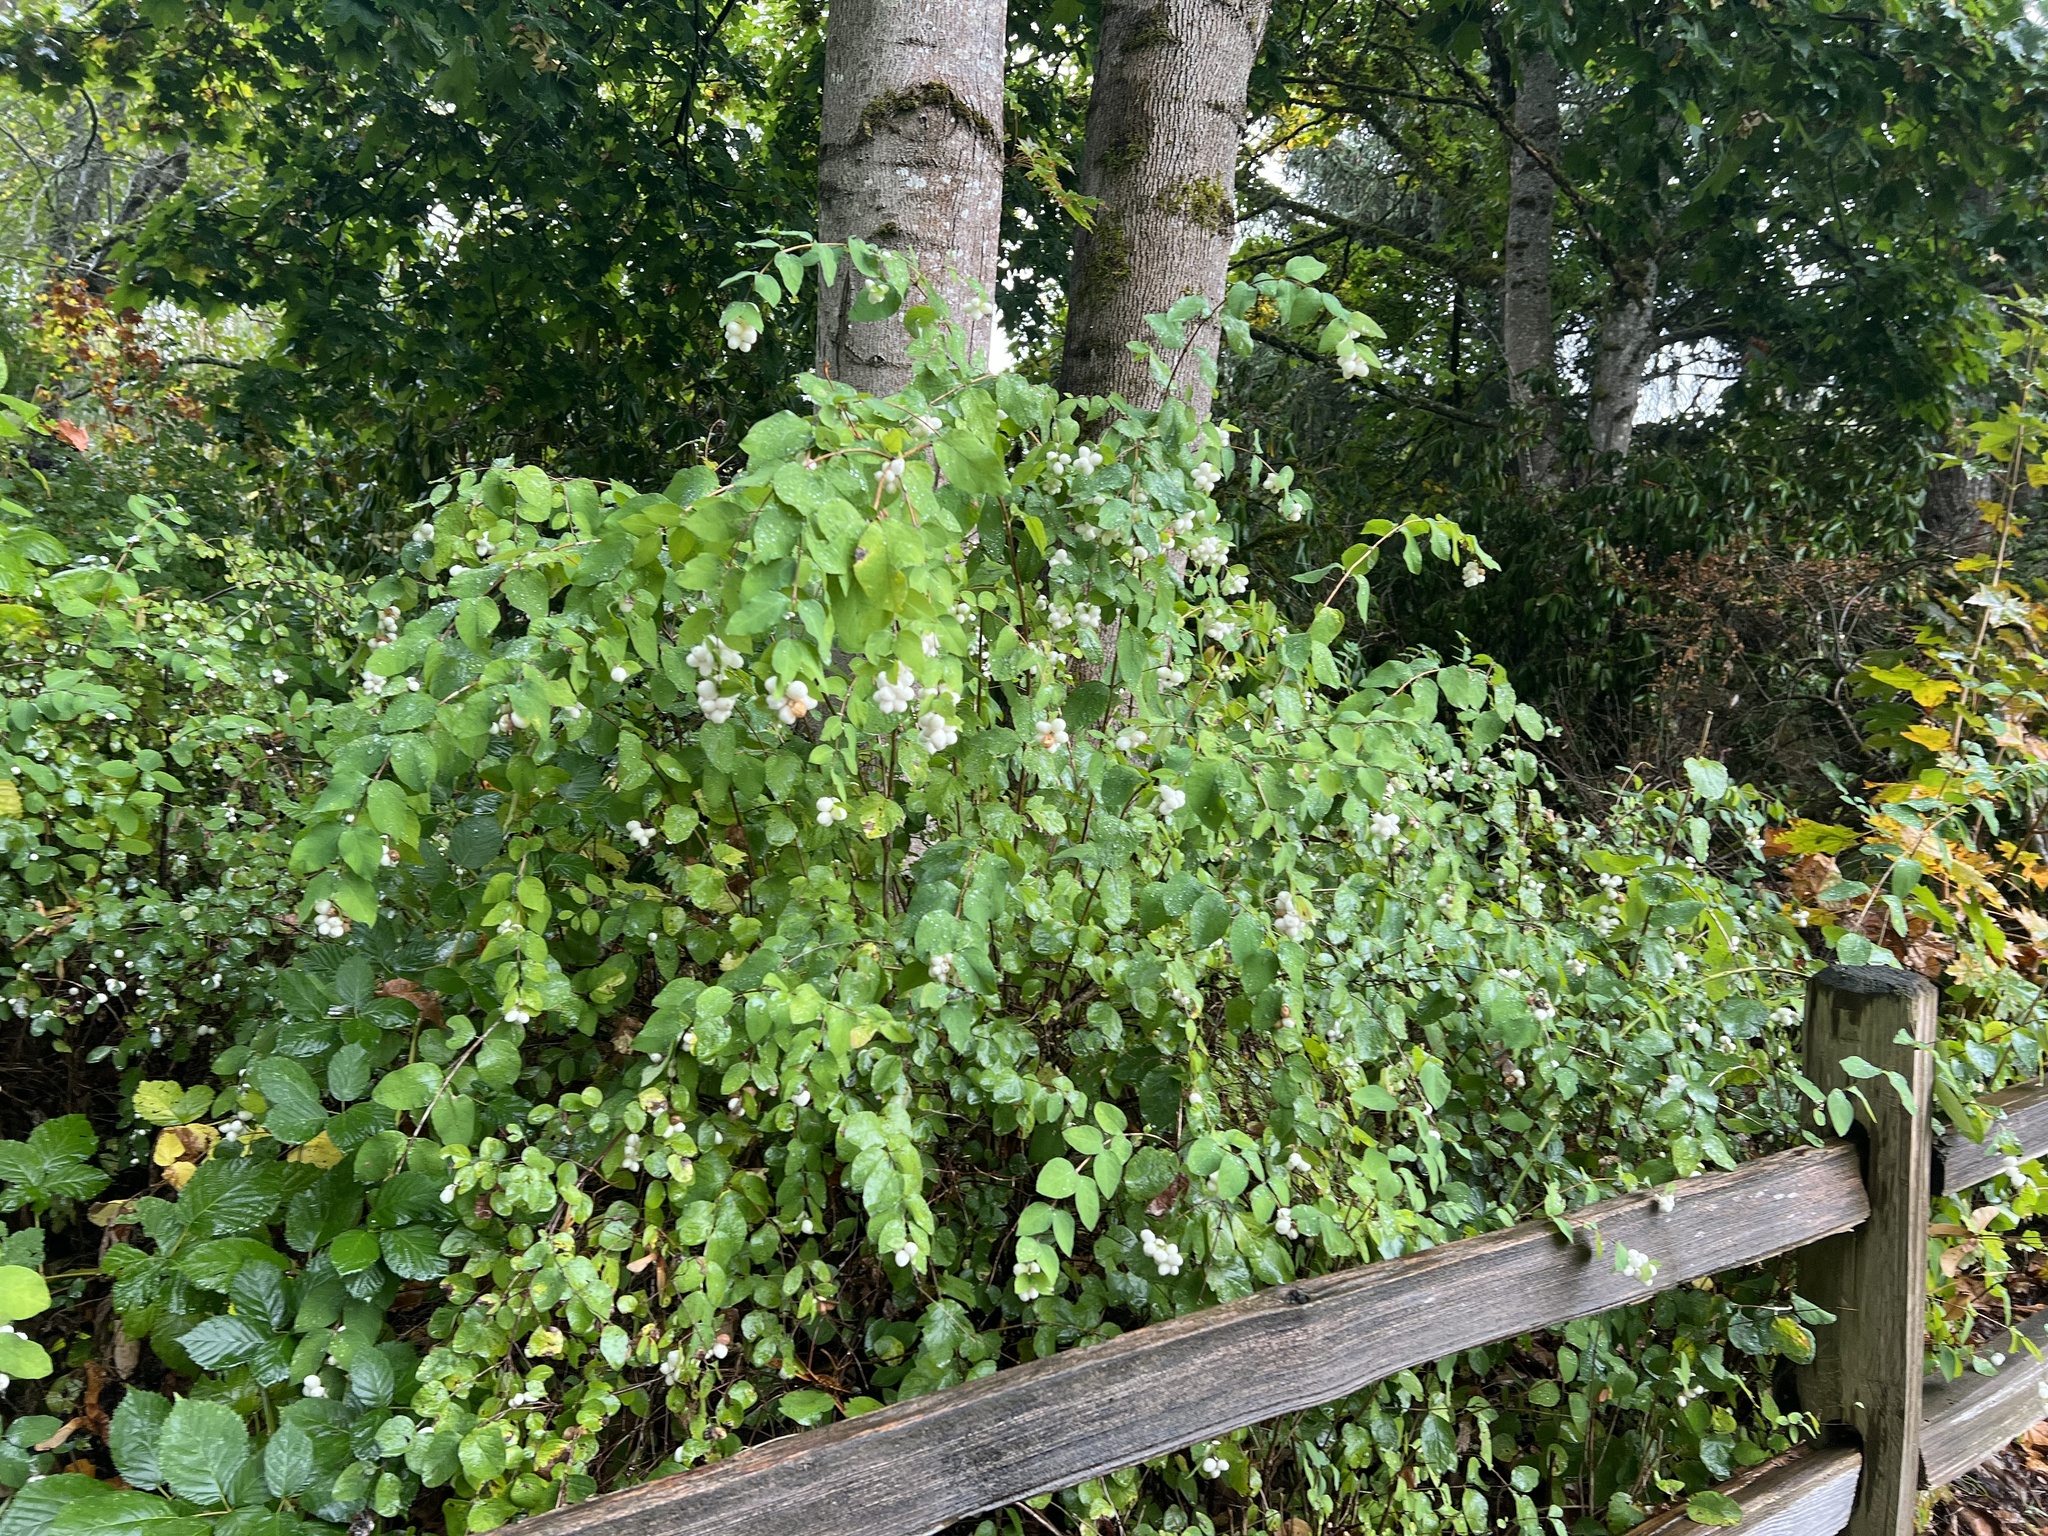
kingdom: Plantae
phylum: Tracheophyta
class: Magnoliopsida
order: Dipsacales
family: Caprifoliaceae
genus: Symphoricarpos
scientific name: Symphoricarpos albus
